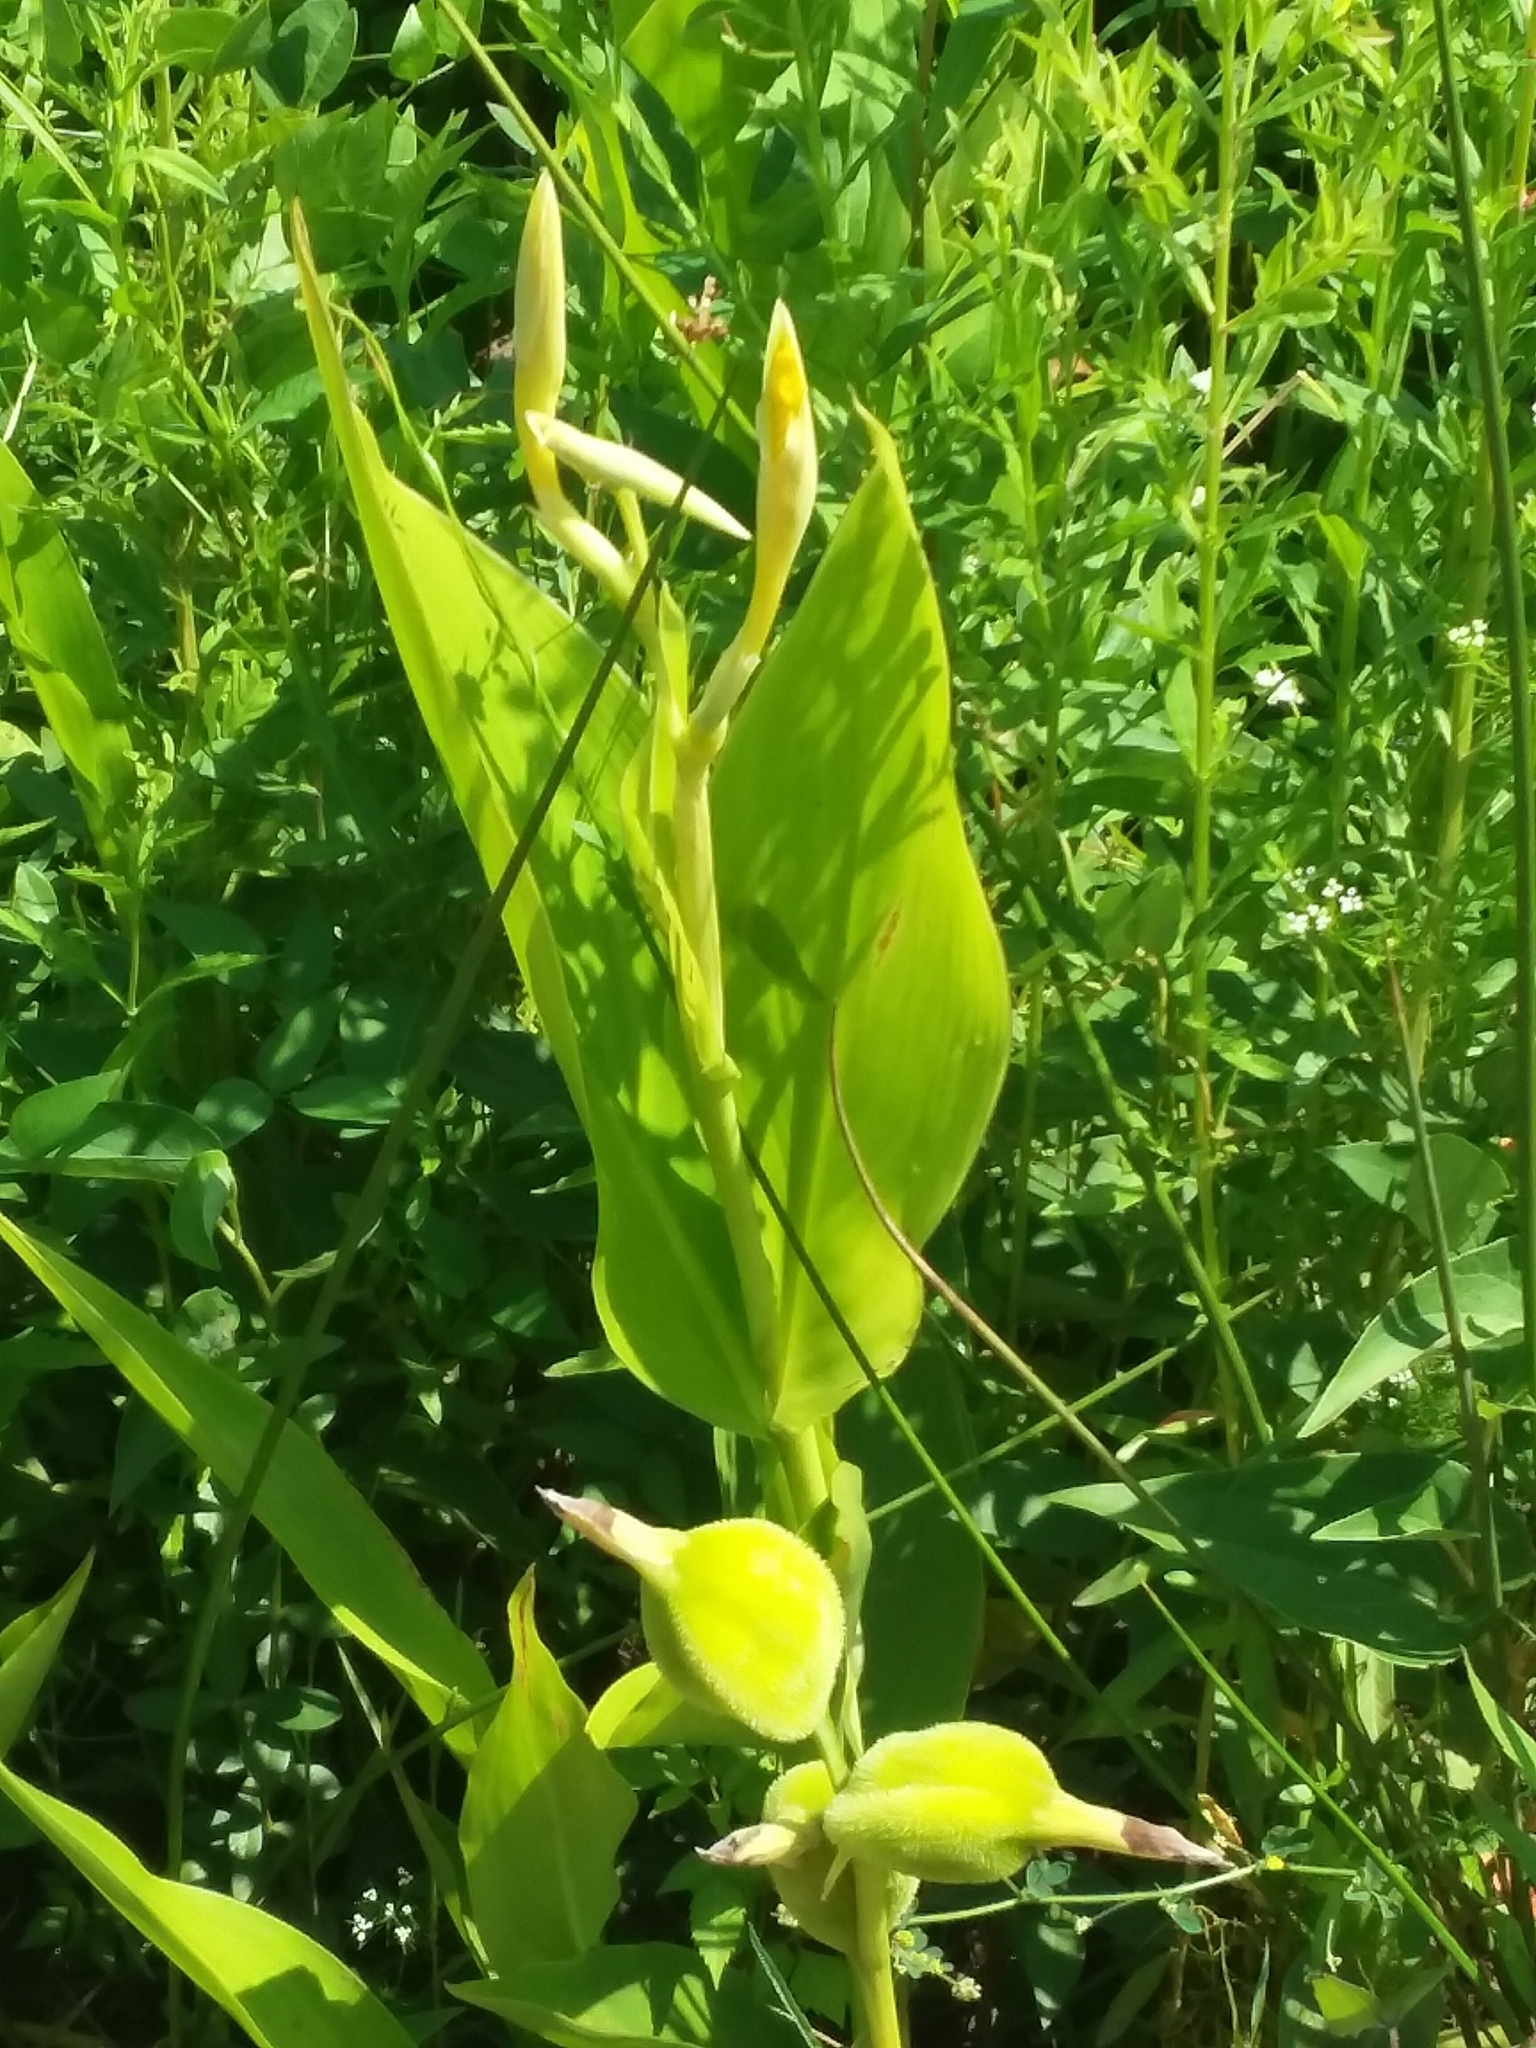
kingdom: Plantae
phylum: Tracheophyta
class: Liliopsida
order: Zingiberales
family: Cannaceae
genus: Canna
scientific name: Canna flaccida
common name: Bandana-of-the-everglades
